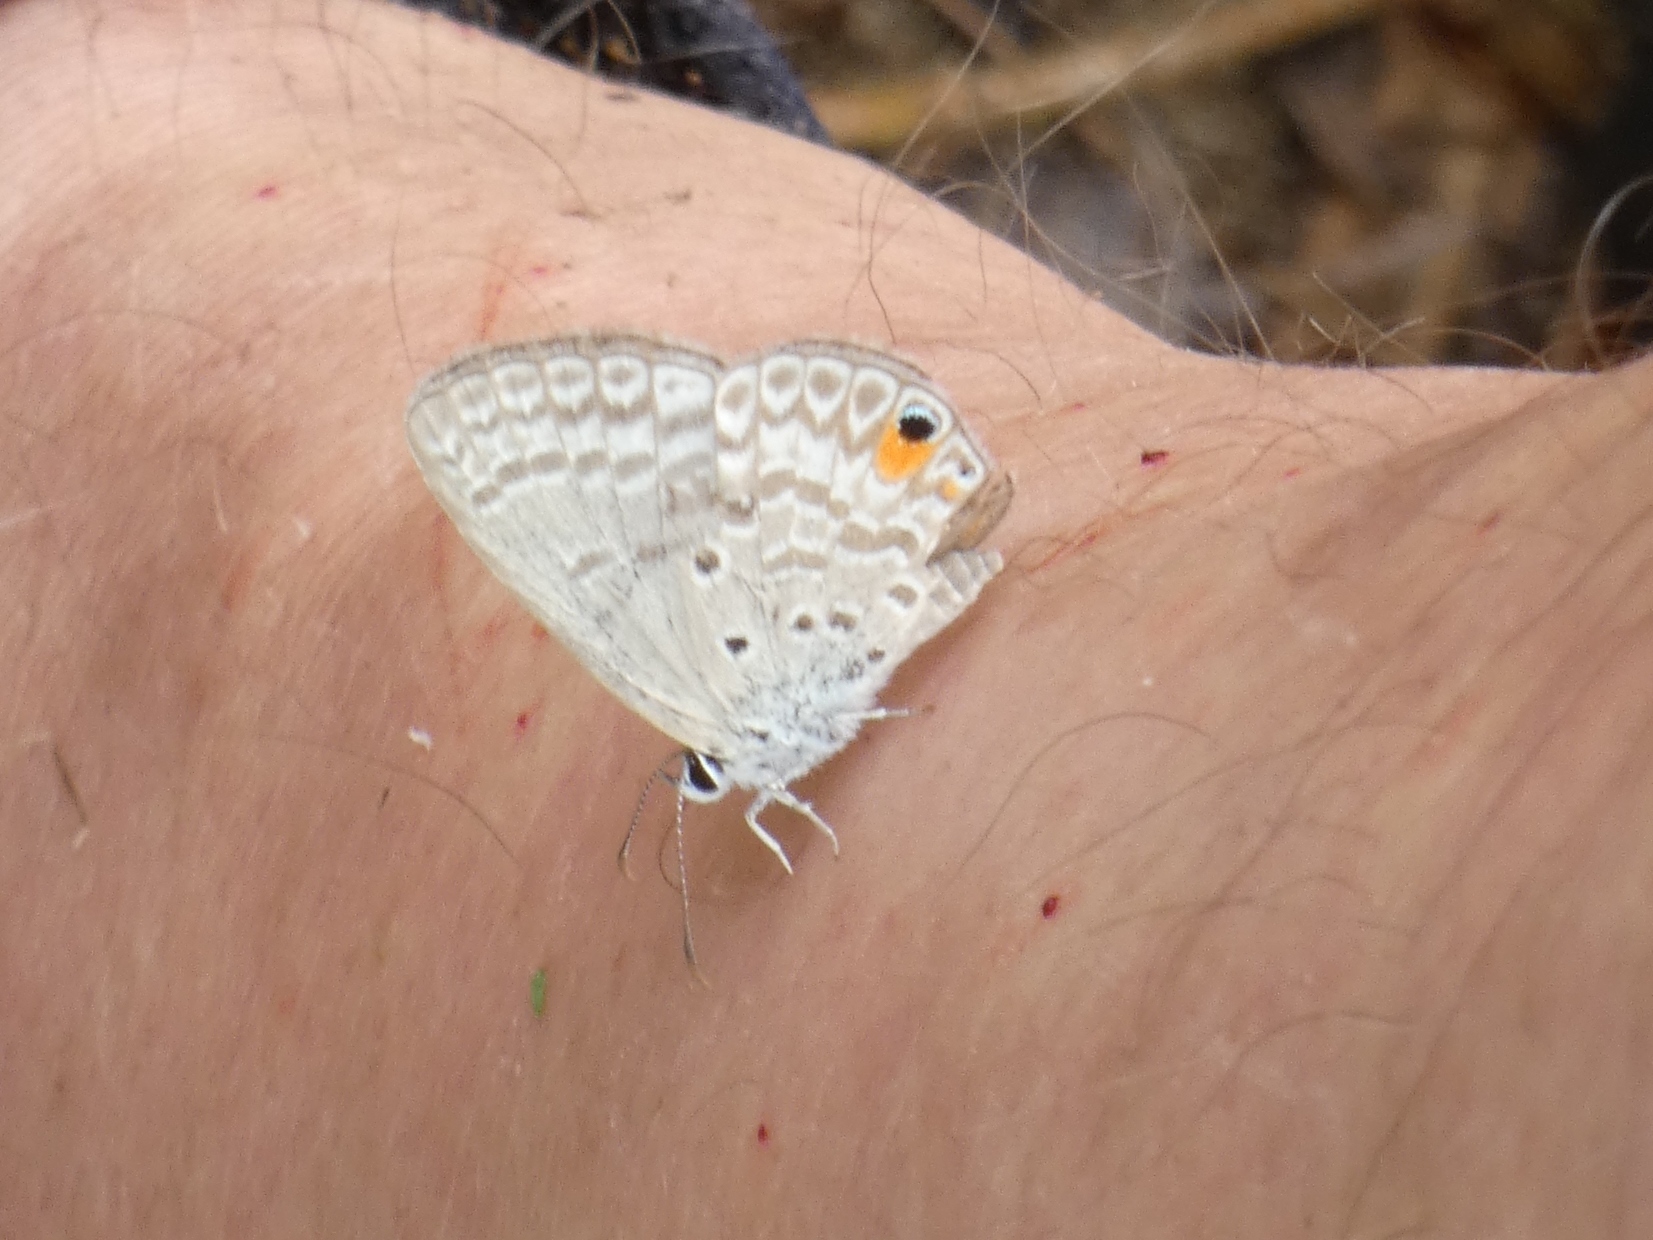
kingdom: Animalia
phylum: Arthropoda
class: Insecta
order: Lepidoptera
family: Lycaenidae
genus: Euchrysops
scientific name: Euchrysops malathana
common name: Common smoky blue
